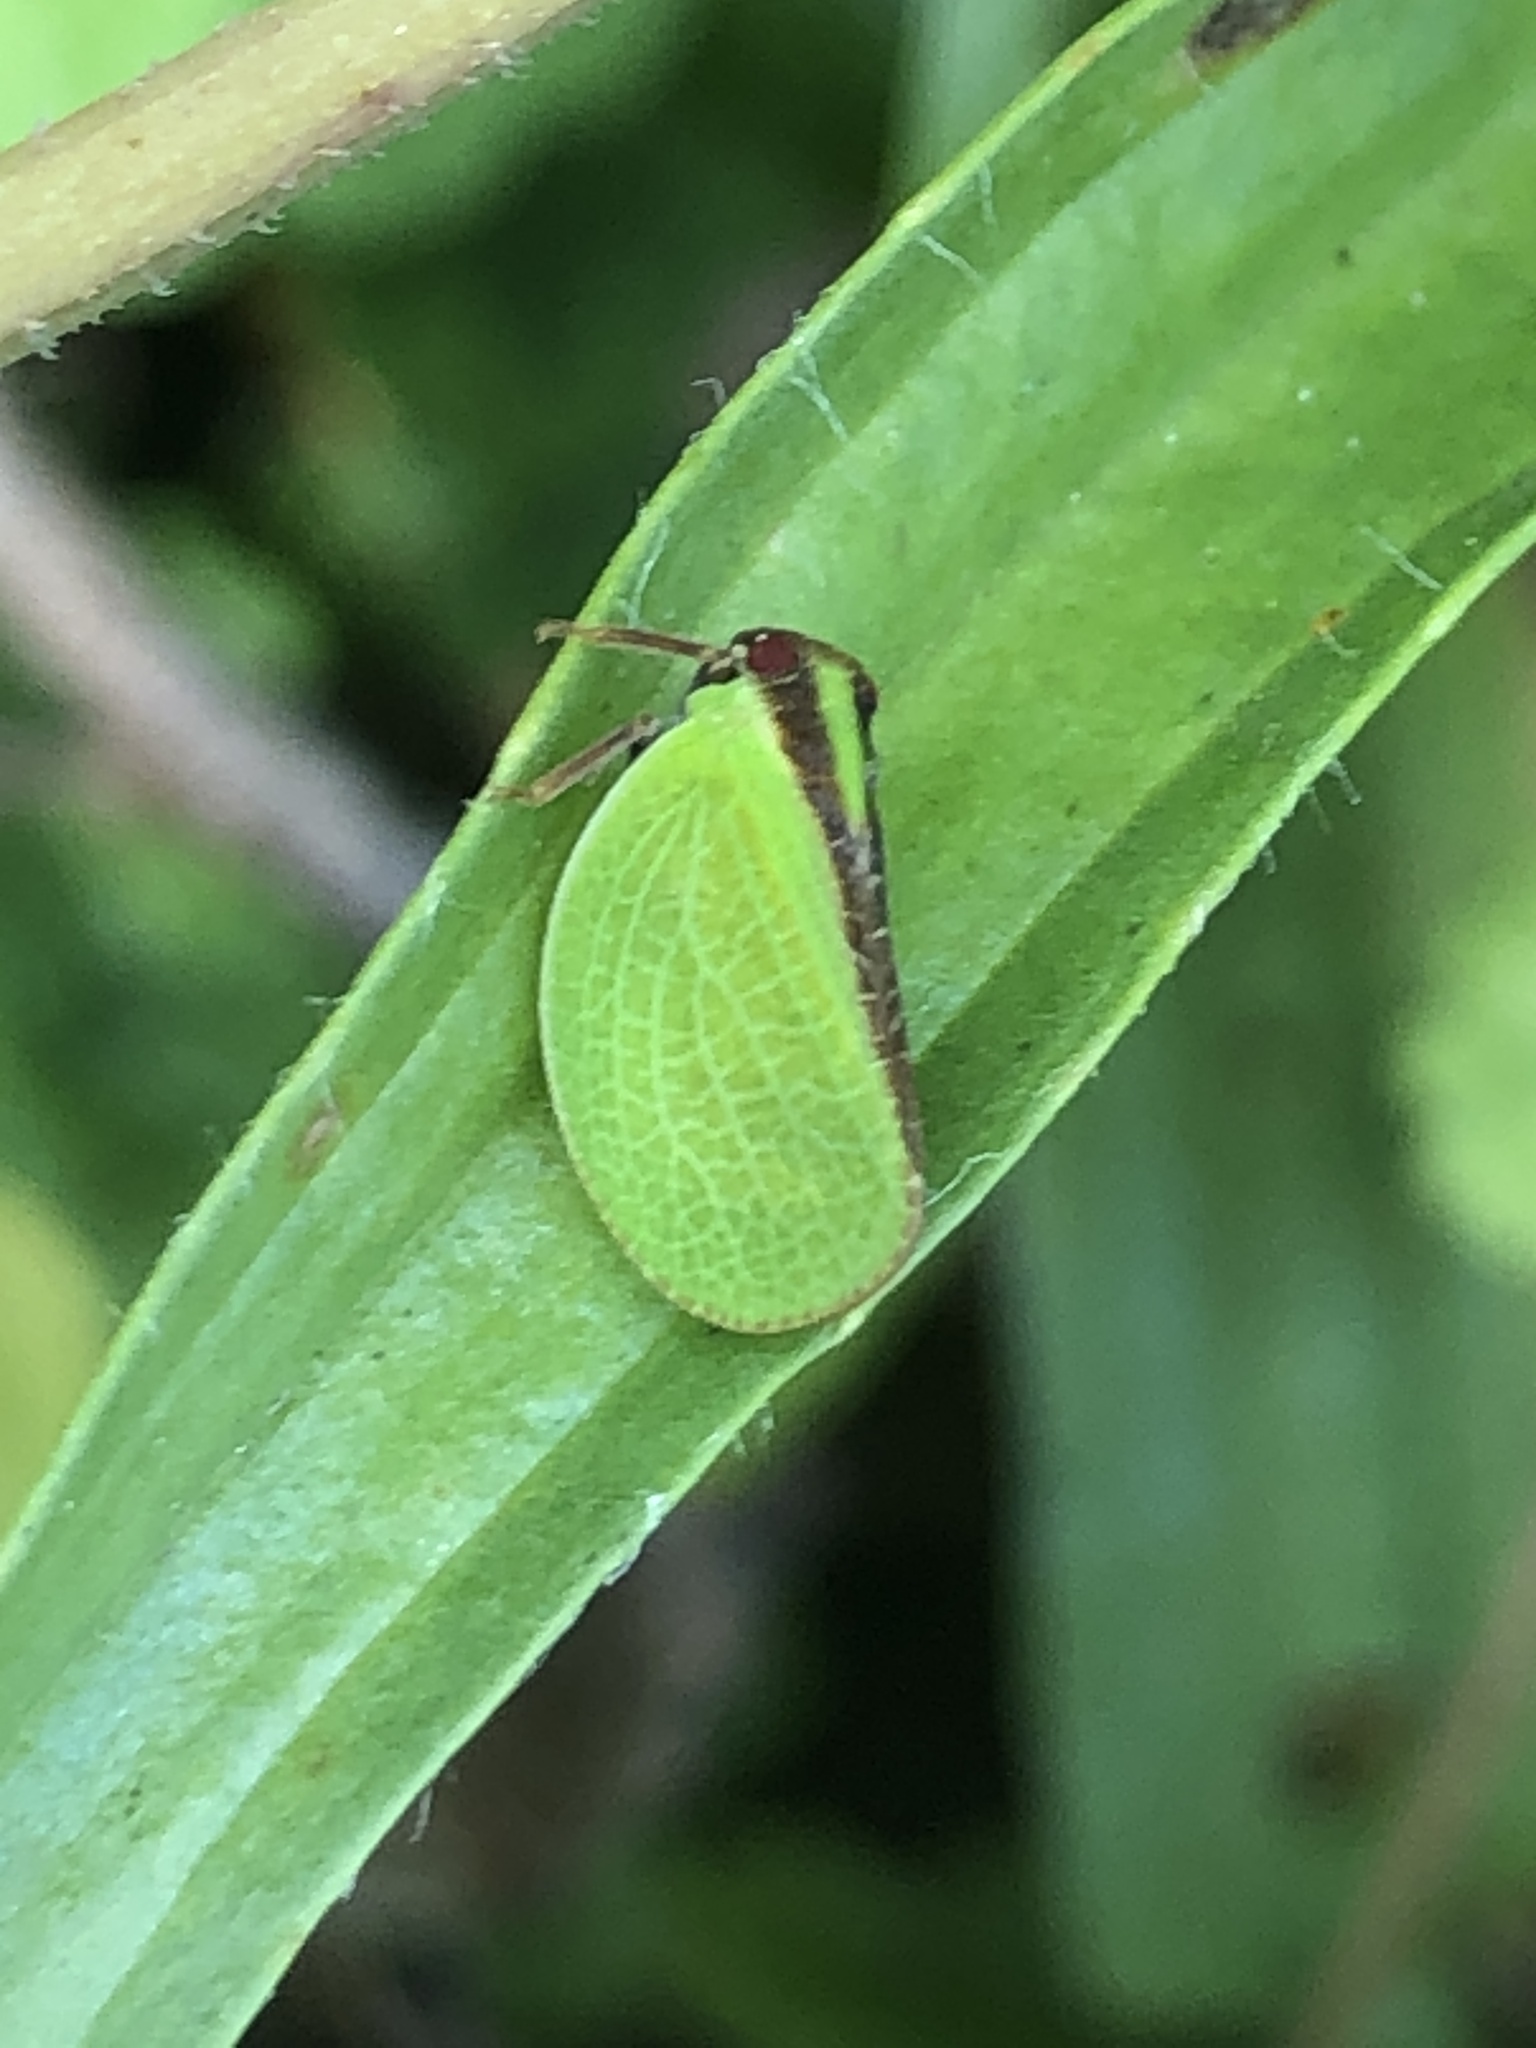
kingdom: Animalia
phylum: Arthropoda
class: Insecta
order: Hemiptera
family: Acanaloniidae
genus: Acanalonia
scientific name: Acanalonia bivittata
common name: Two-striped planthopper
